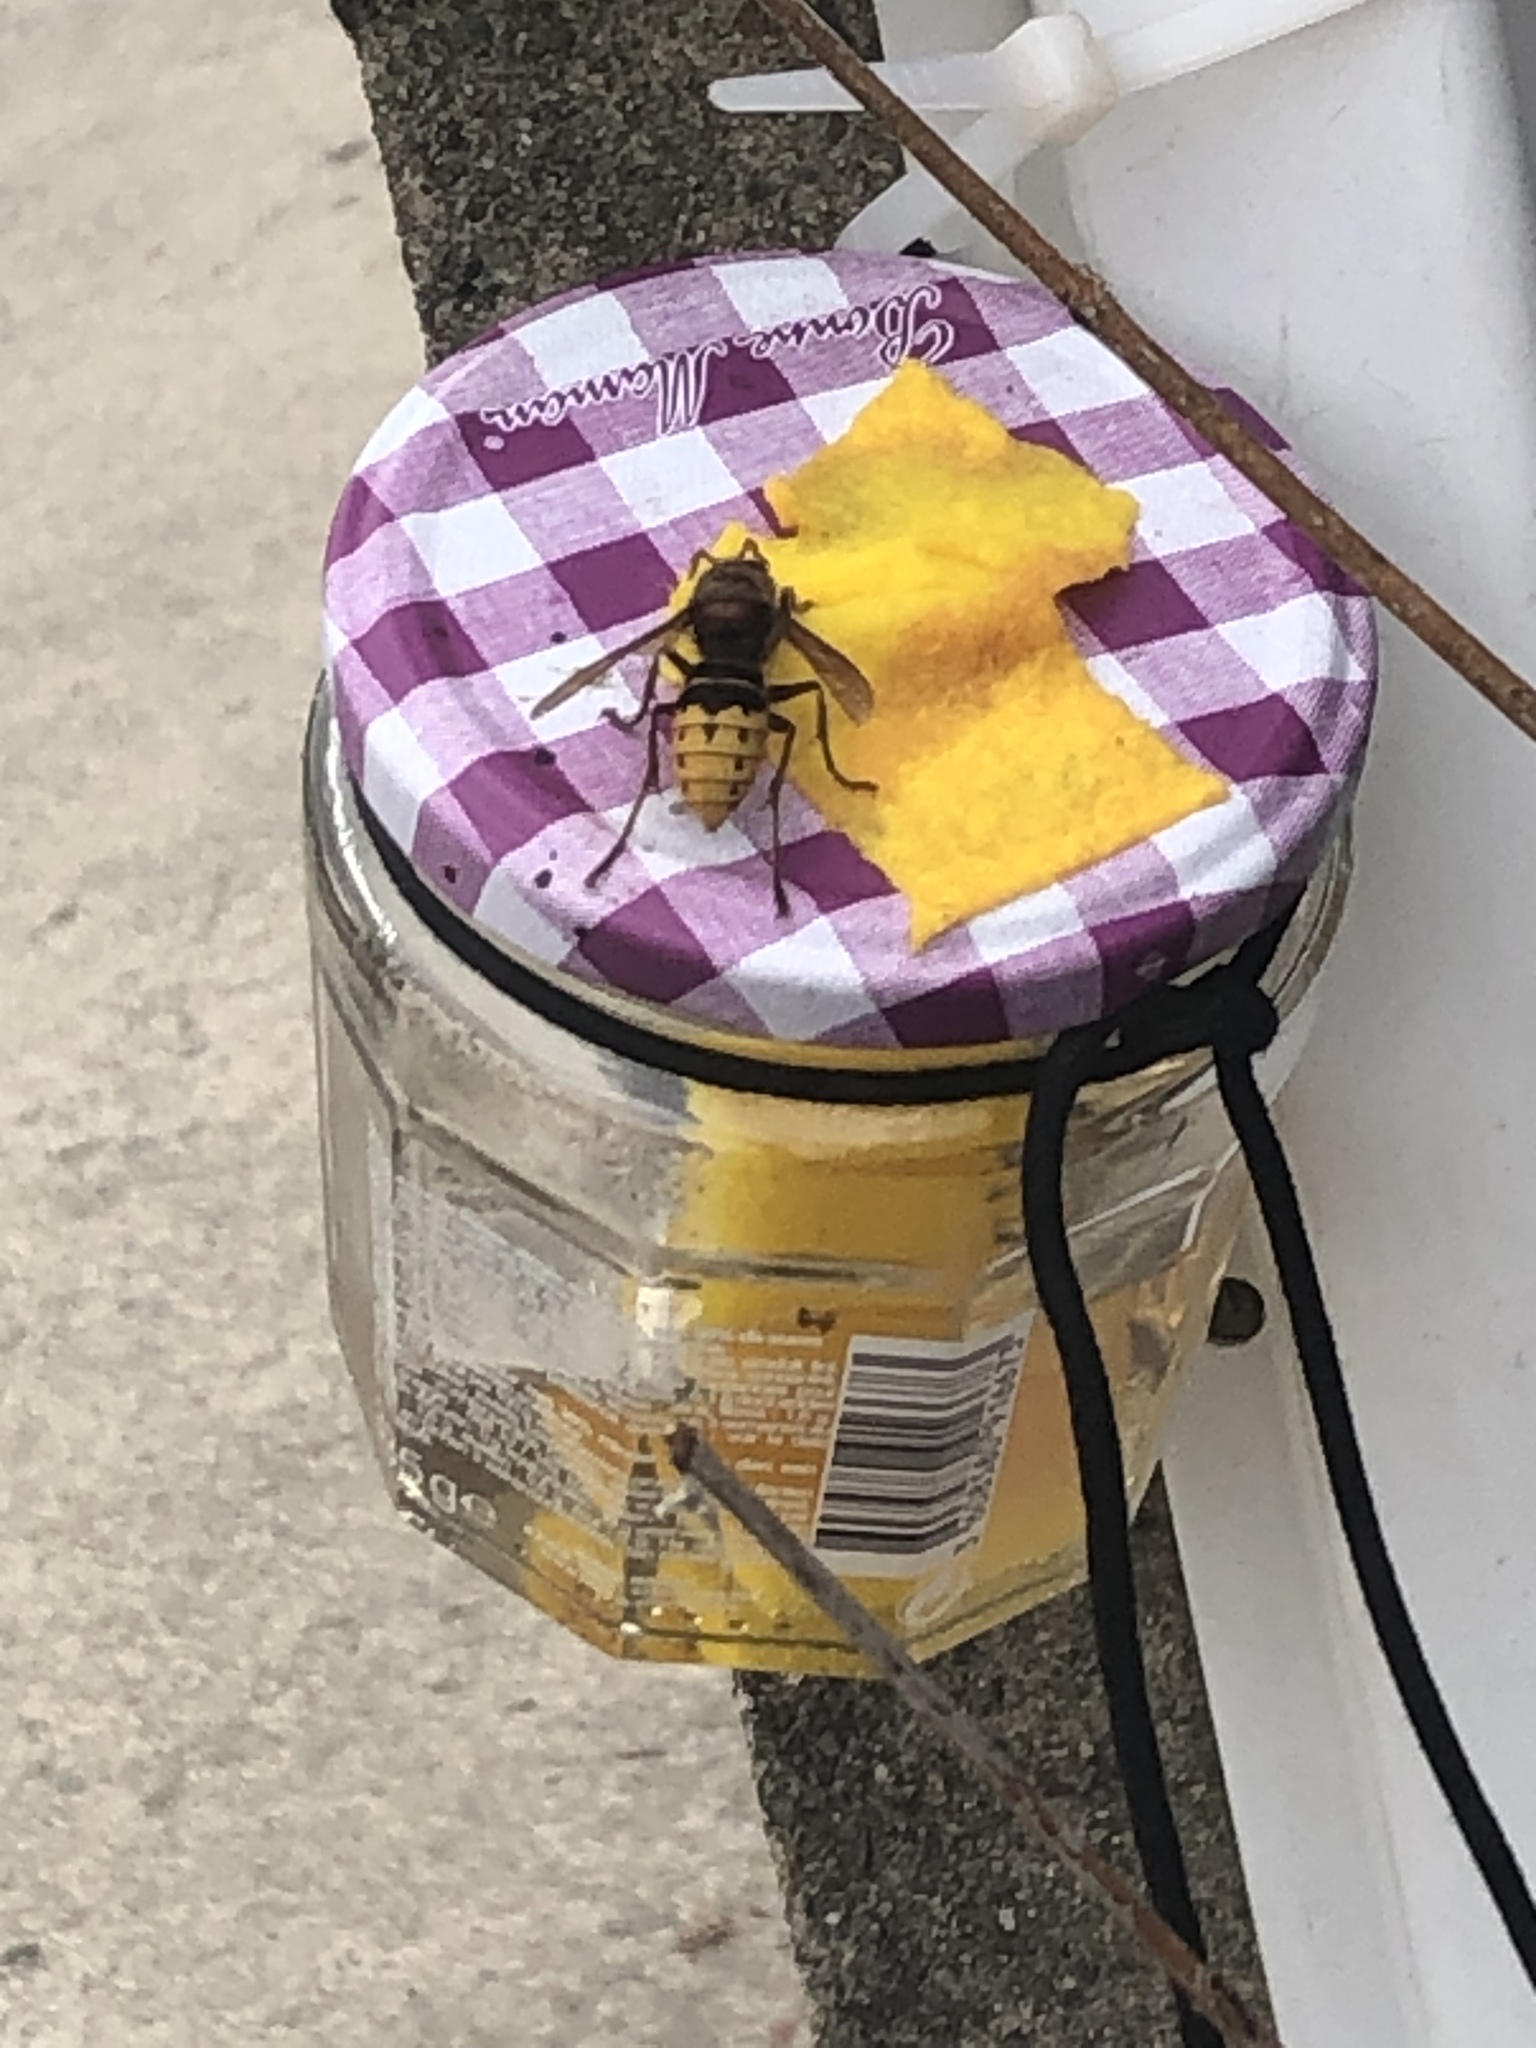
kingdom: Animalia
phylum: Arthropoda
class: Insecta
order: Hymenoptera
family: Vespidae
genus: Vespa
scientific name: Vespa crabro
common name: Hornet
